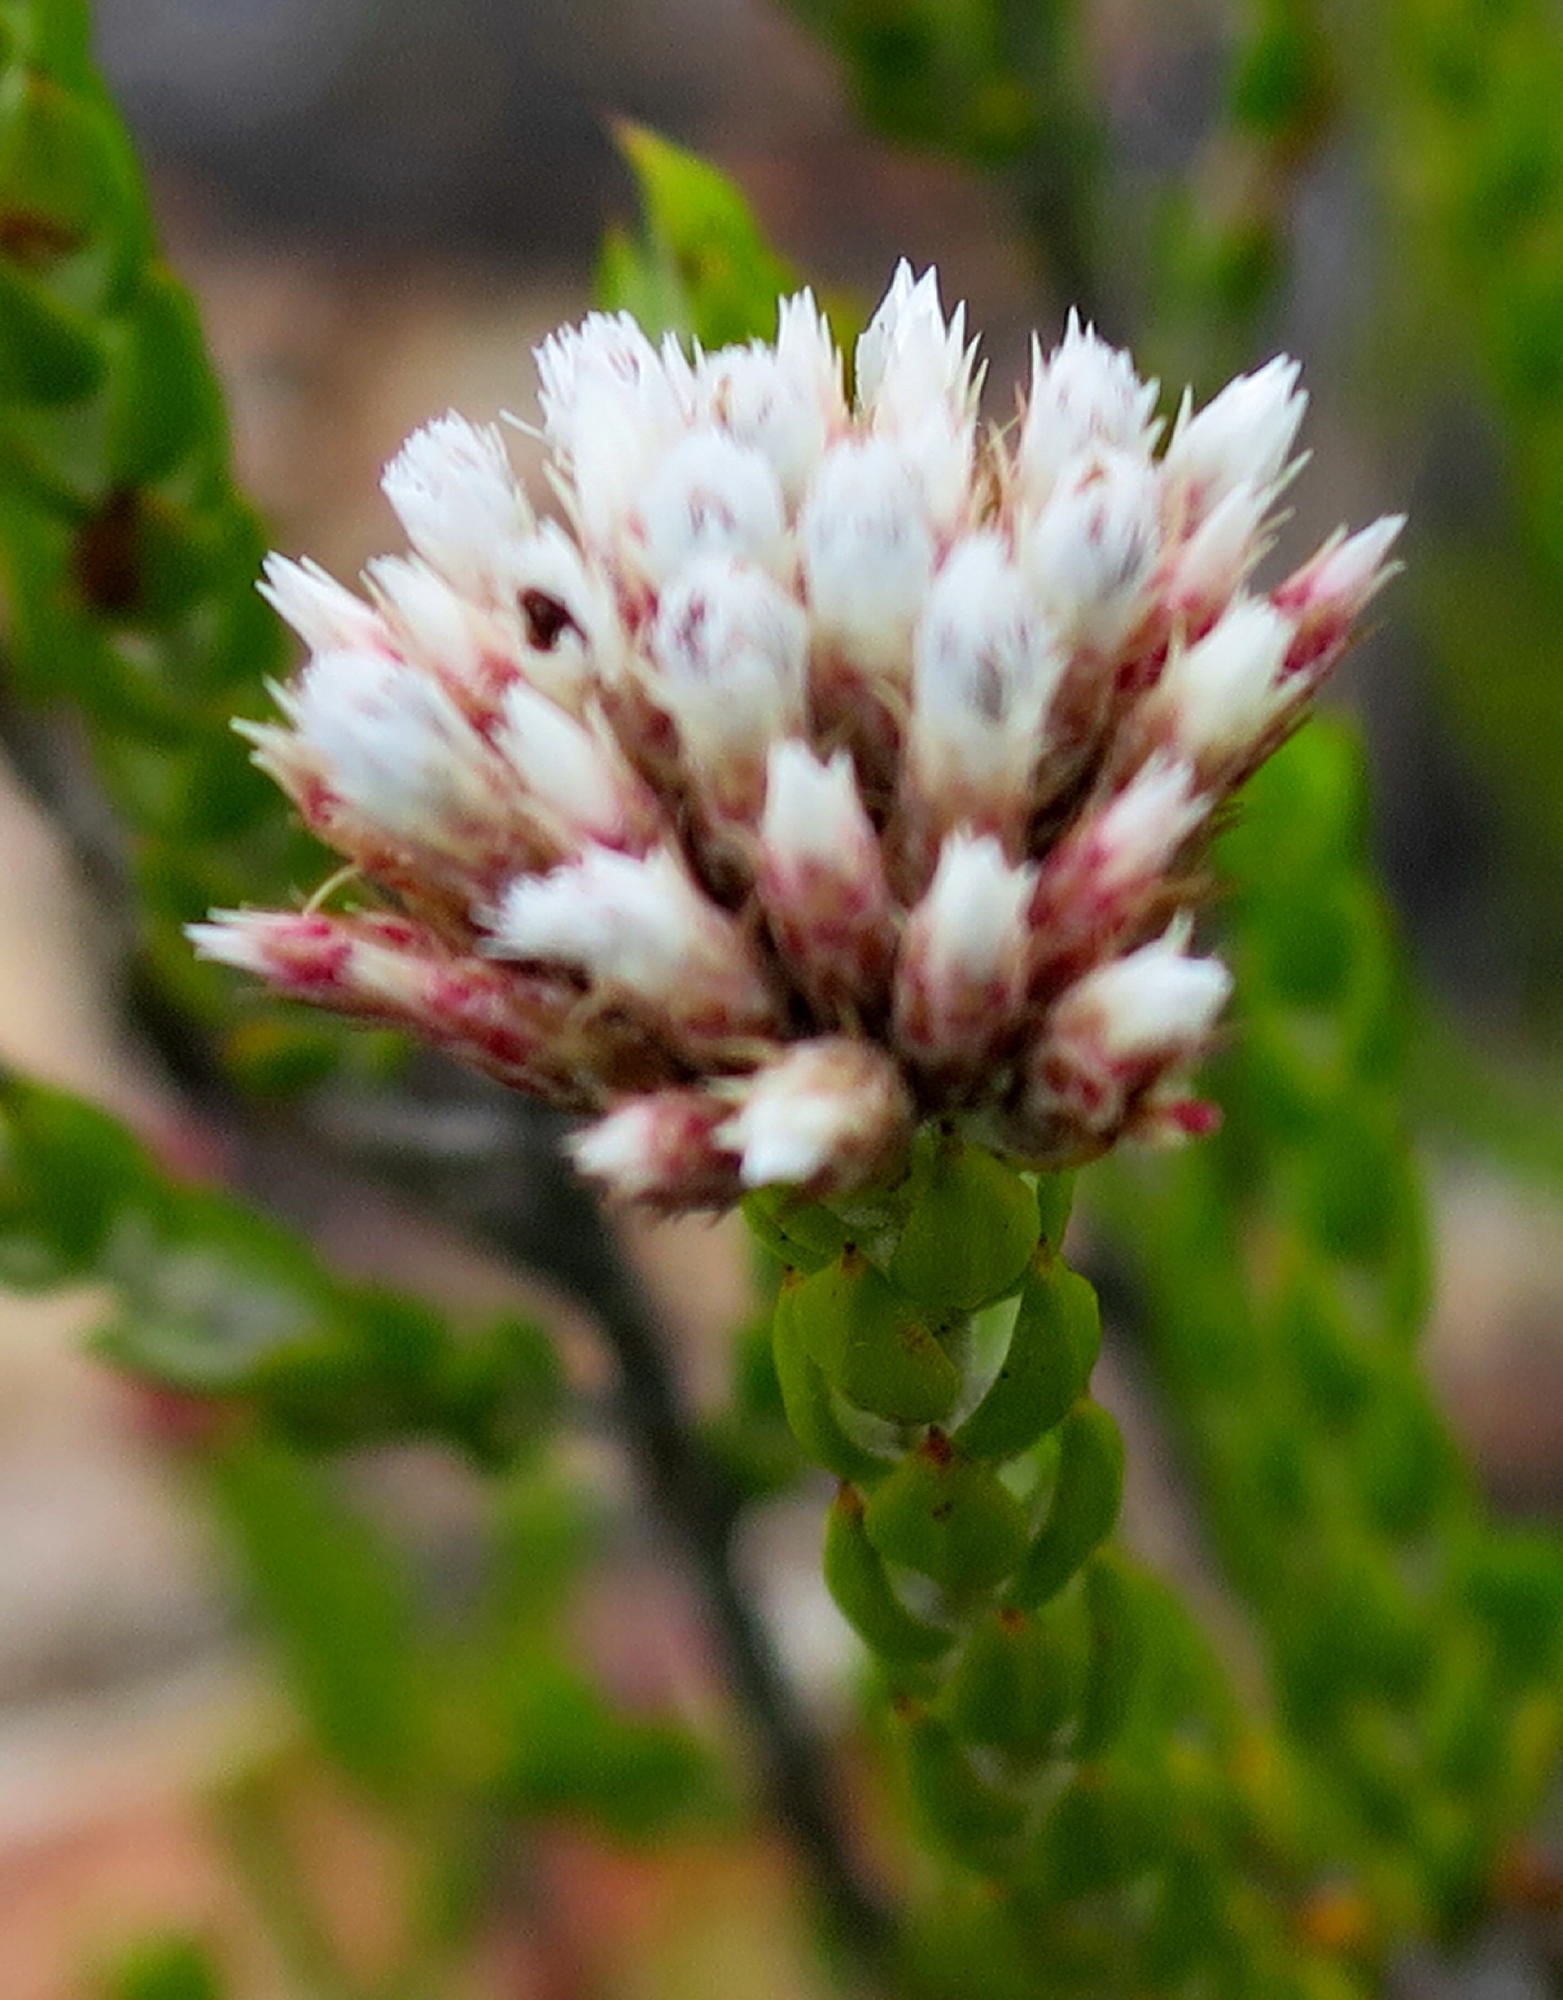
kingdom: Plantae
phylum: Tracheophyta
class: Magnoliopsida
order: Asterales
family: Asteraceae
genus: Metalasia
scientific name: Metalasia pulcherrima
